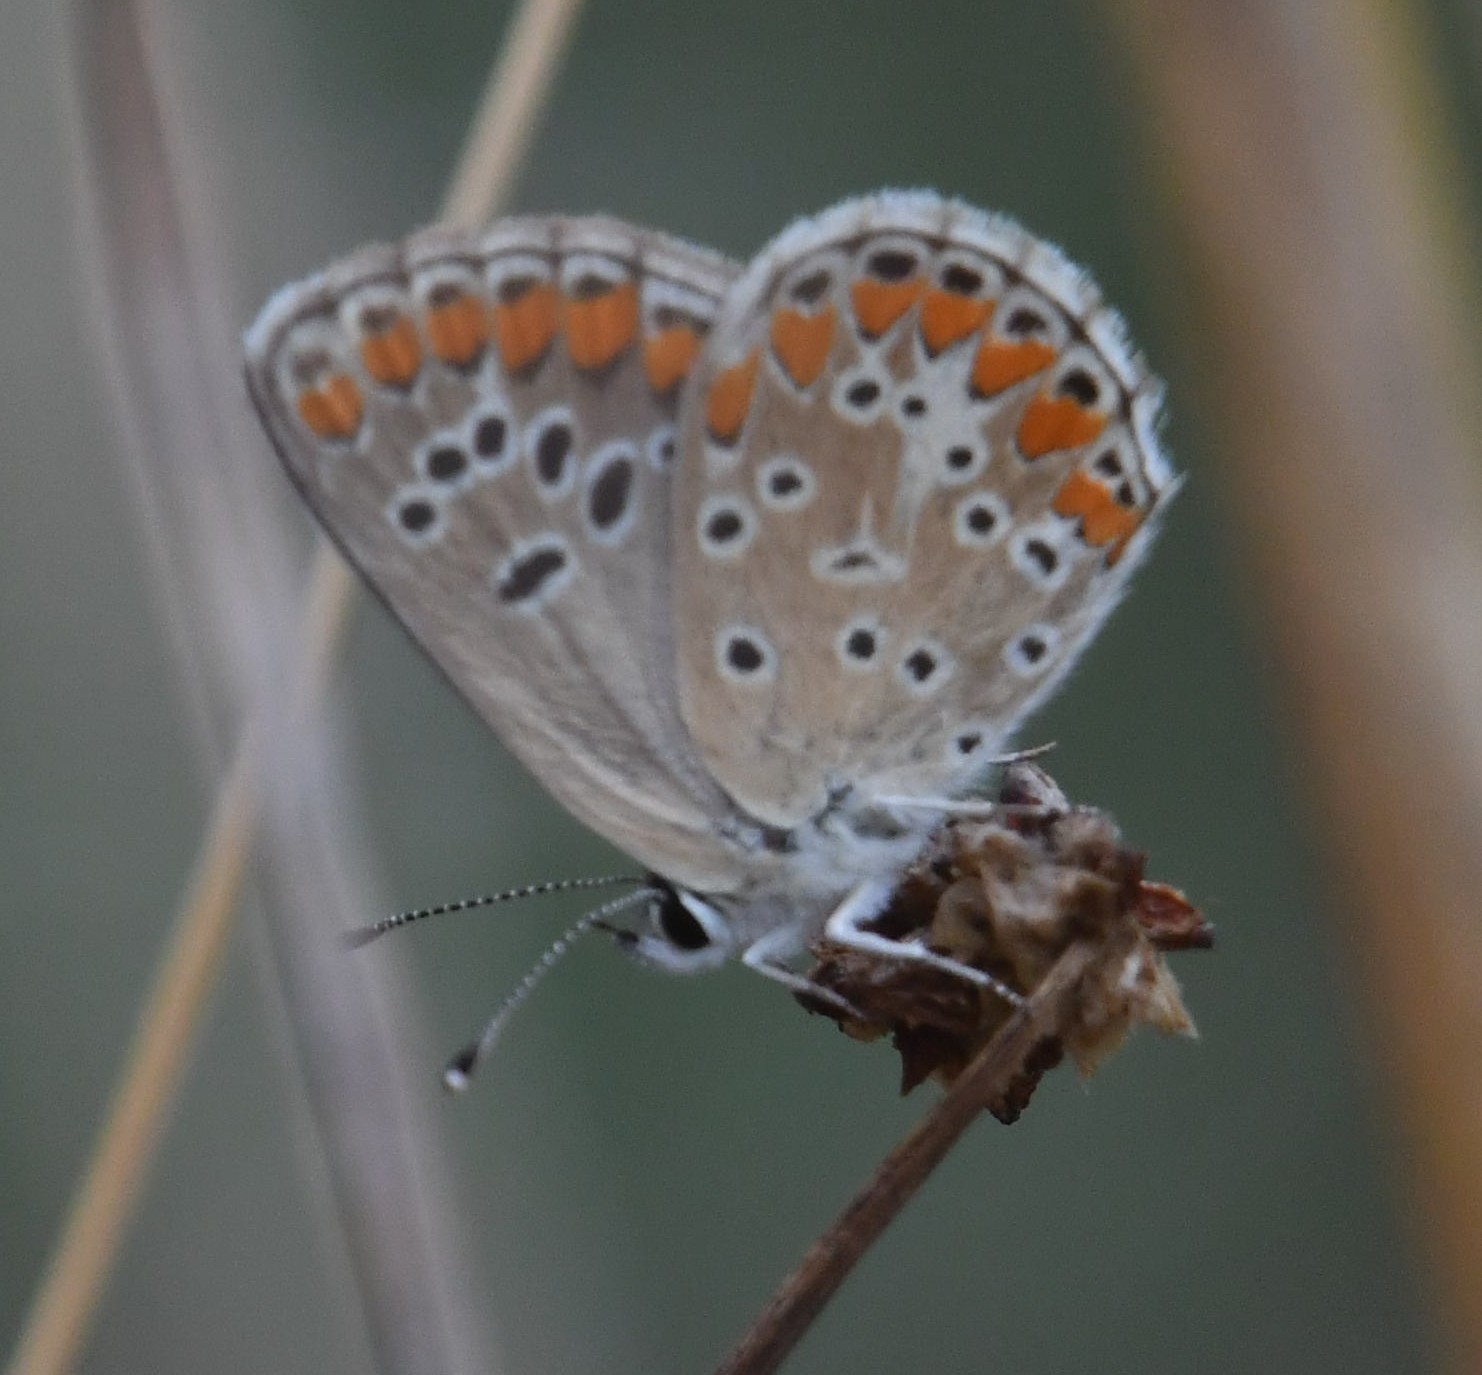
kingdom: Animalia
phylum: Arthropoda
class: Insecta
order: Lepidoptera
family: Lycaenidae
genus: Aricia
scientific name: Aricia agestis
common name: Brown argus
